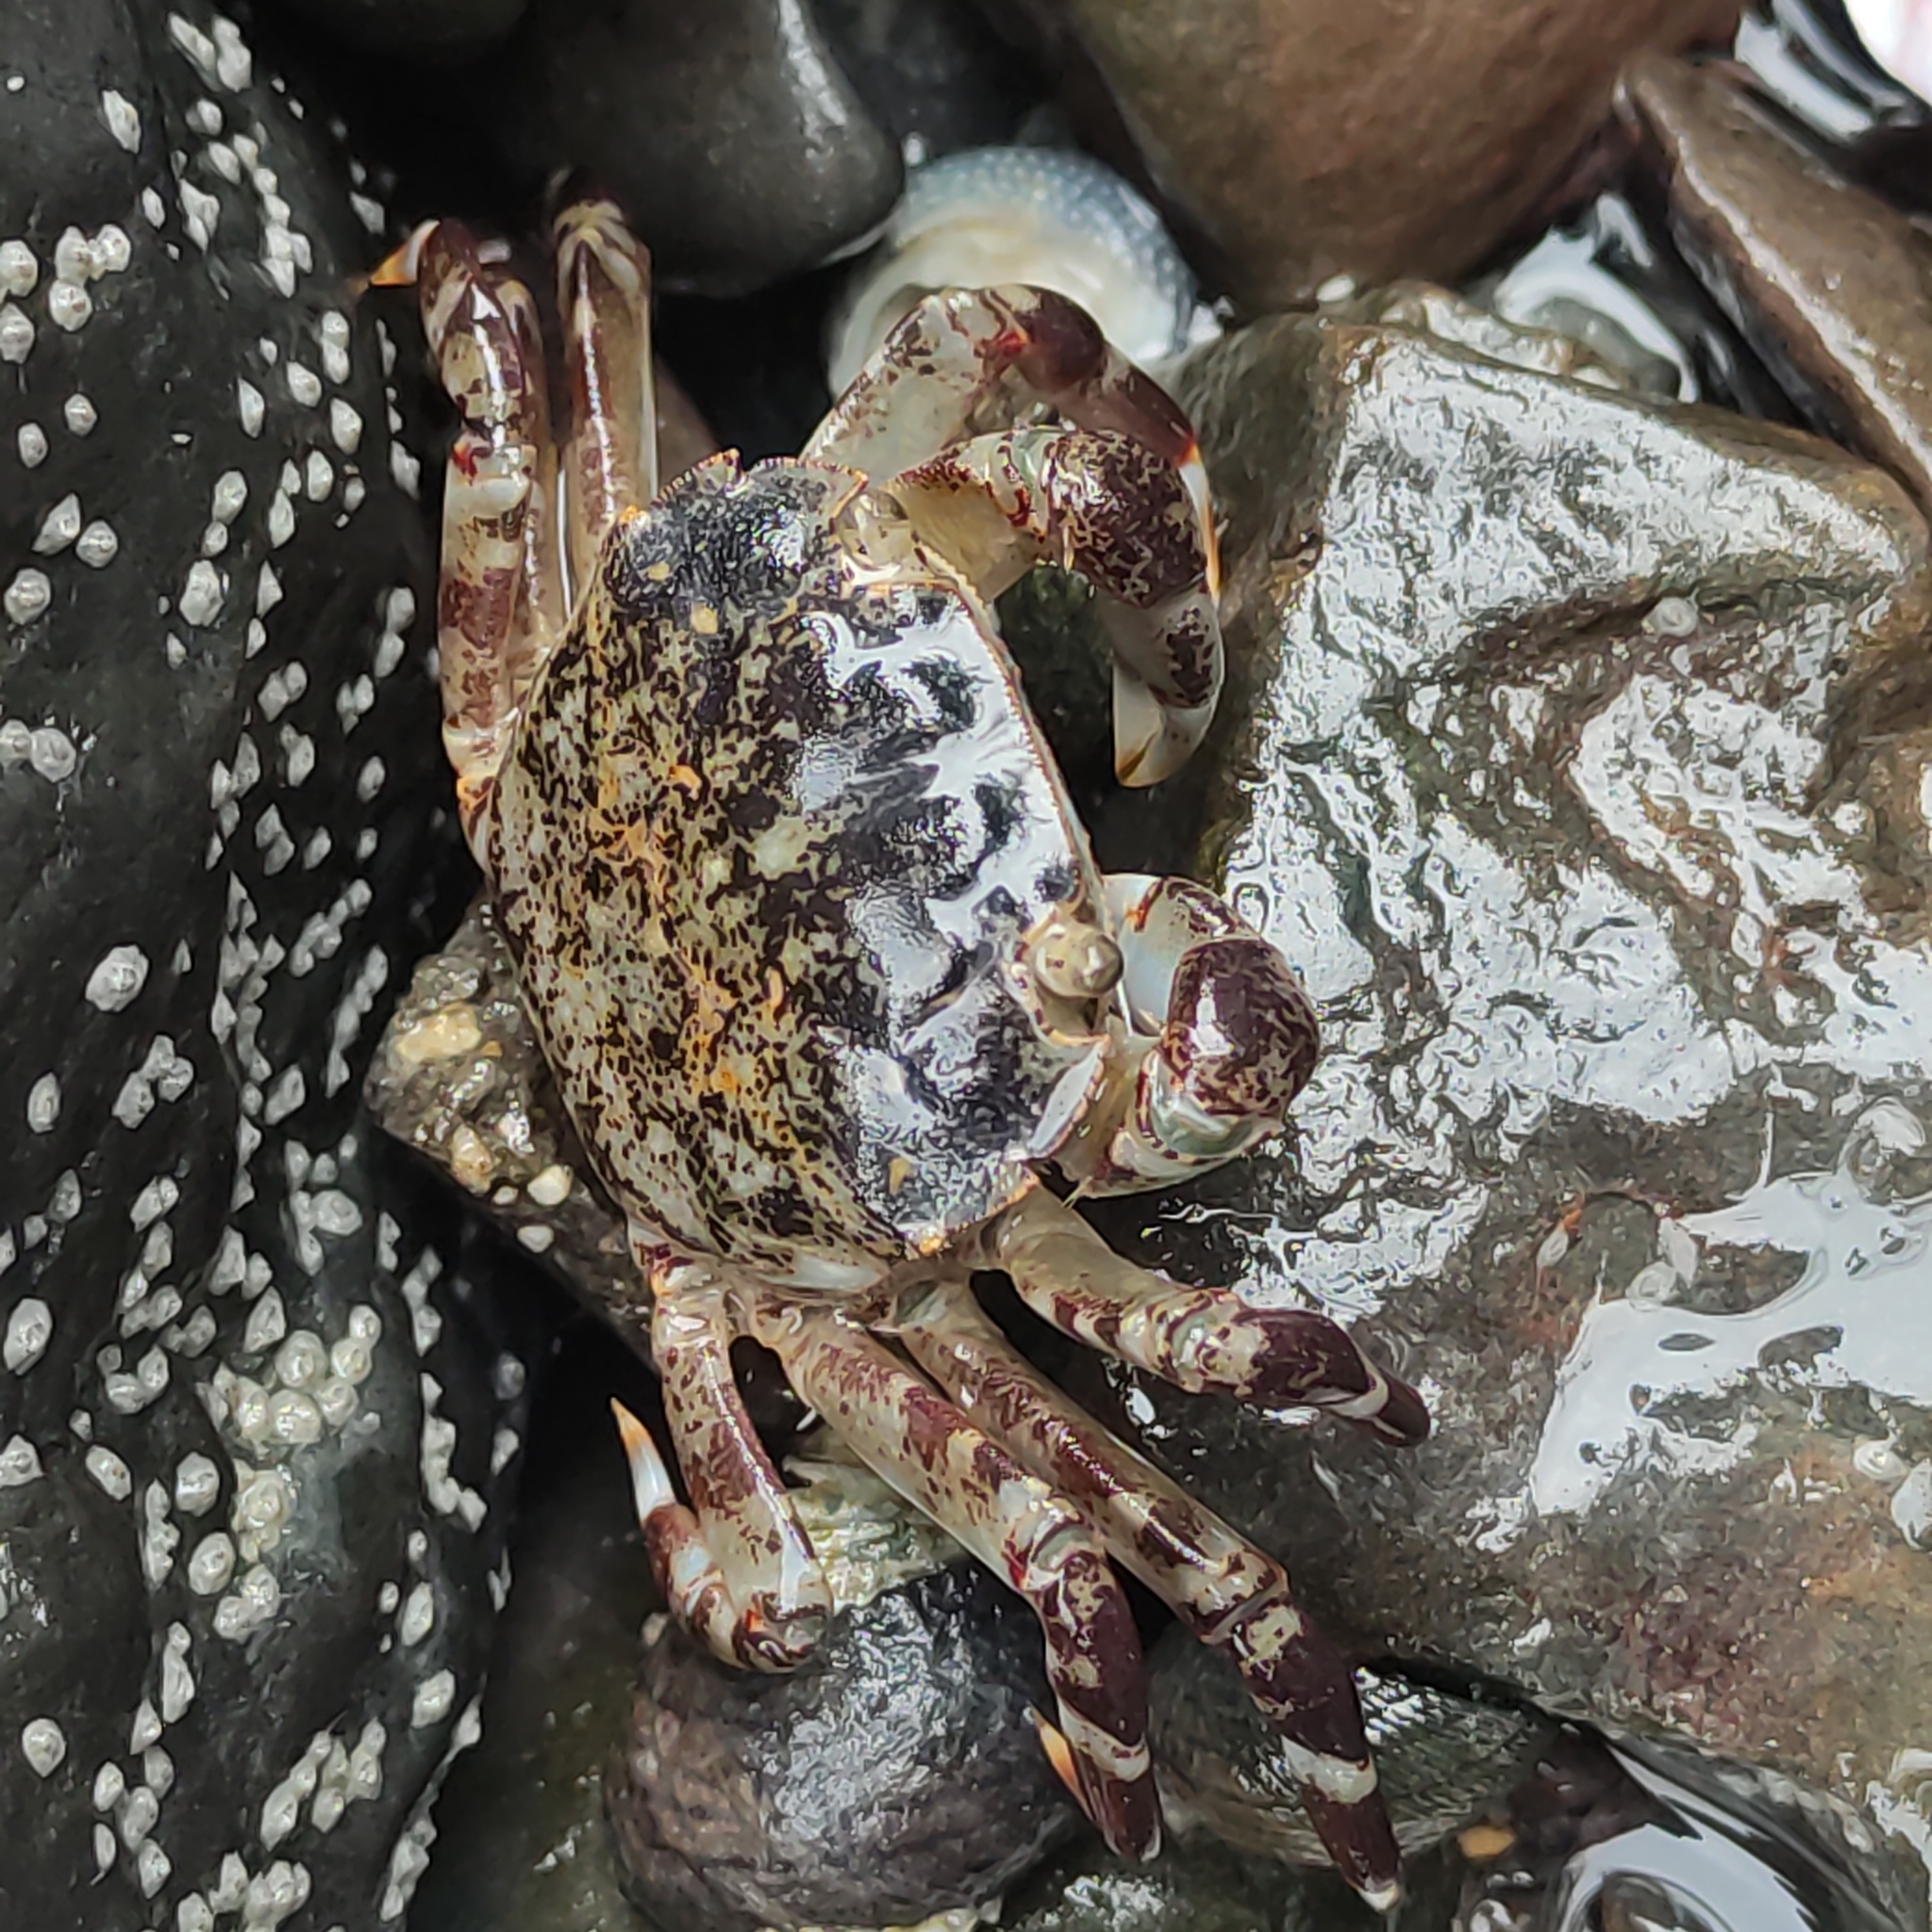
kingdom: Animalia
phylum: Arthropoda
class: Malacostraca
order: Decapoda
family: Varunidae
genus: Hemigrapsus
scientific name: Hemigrapsus sexdentatus
